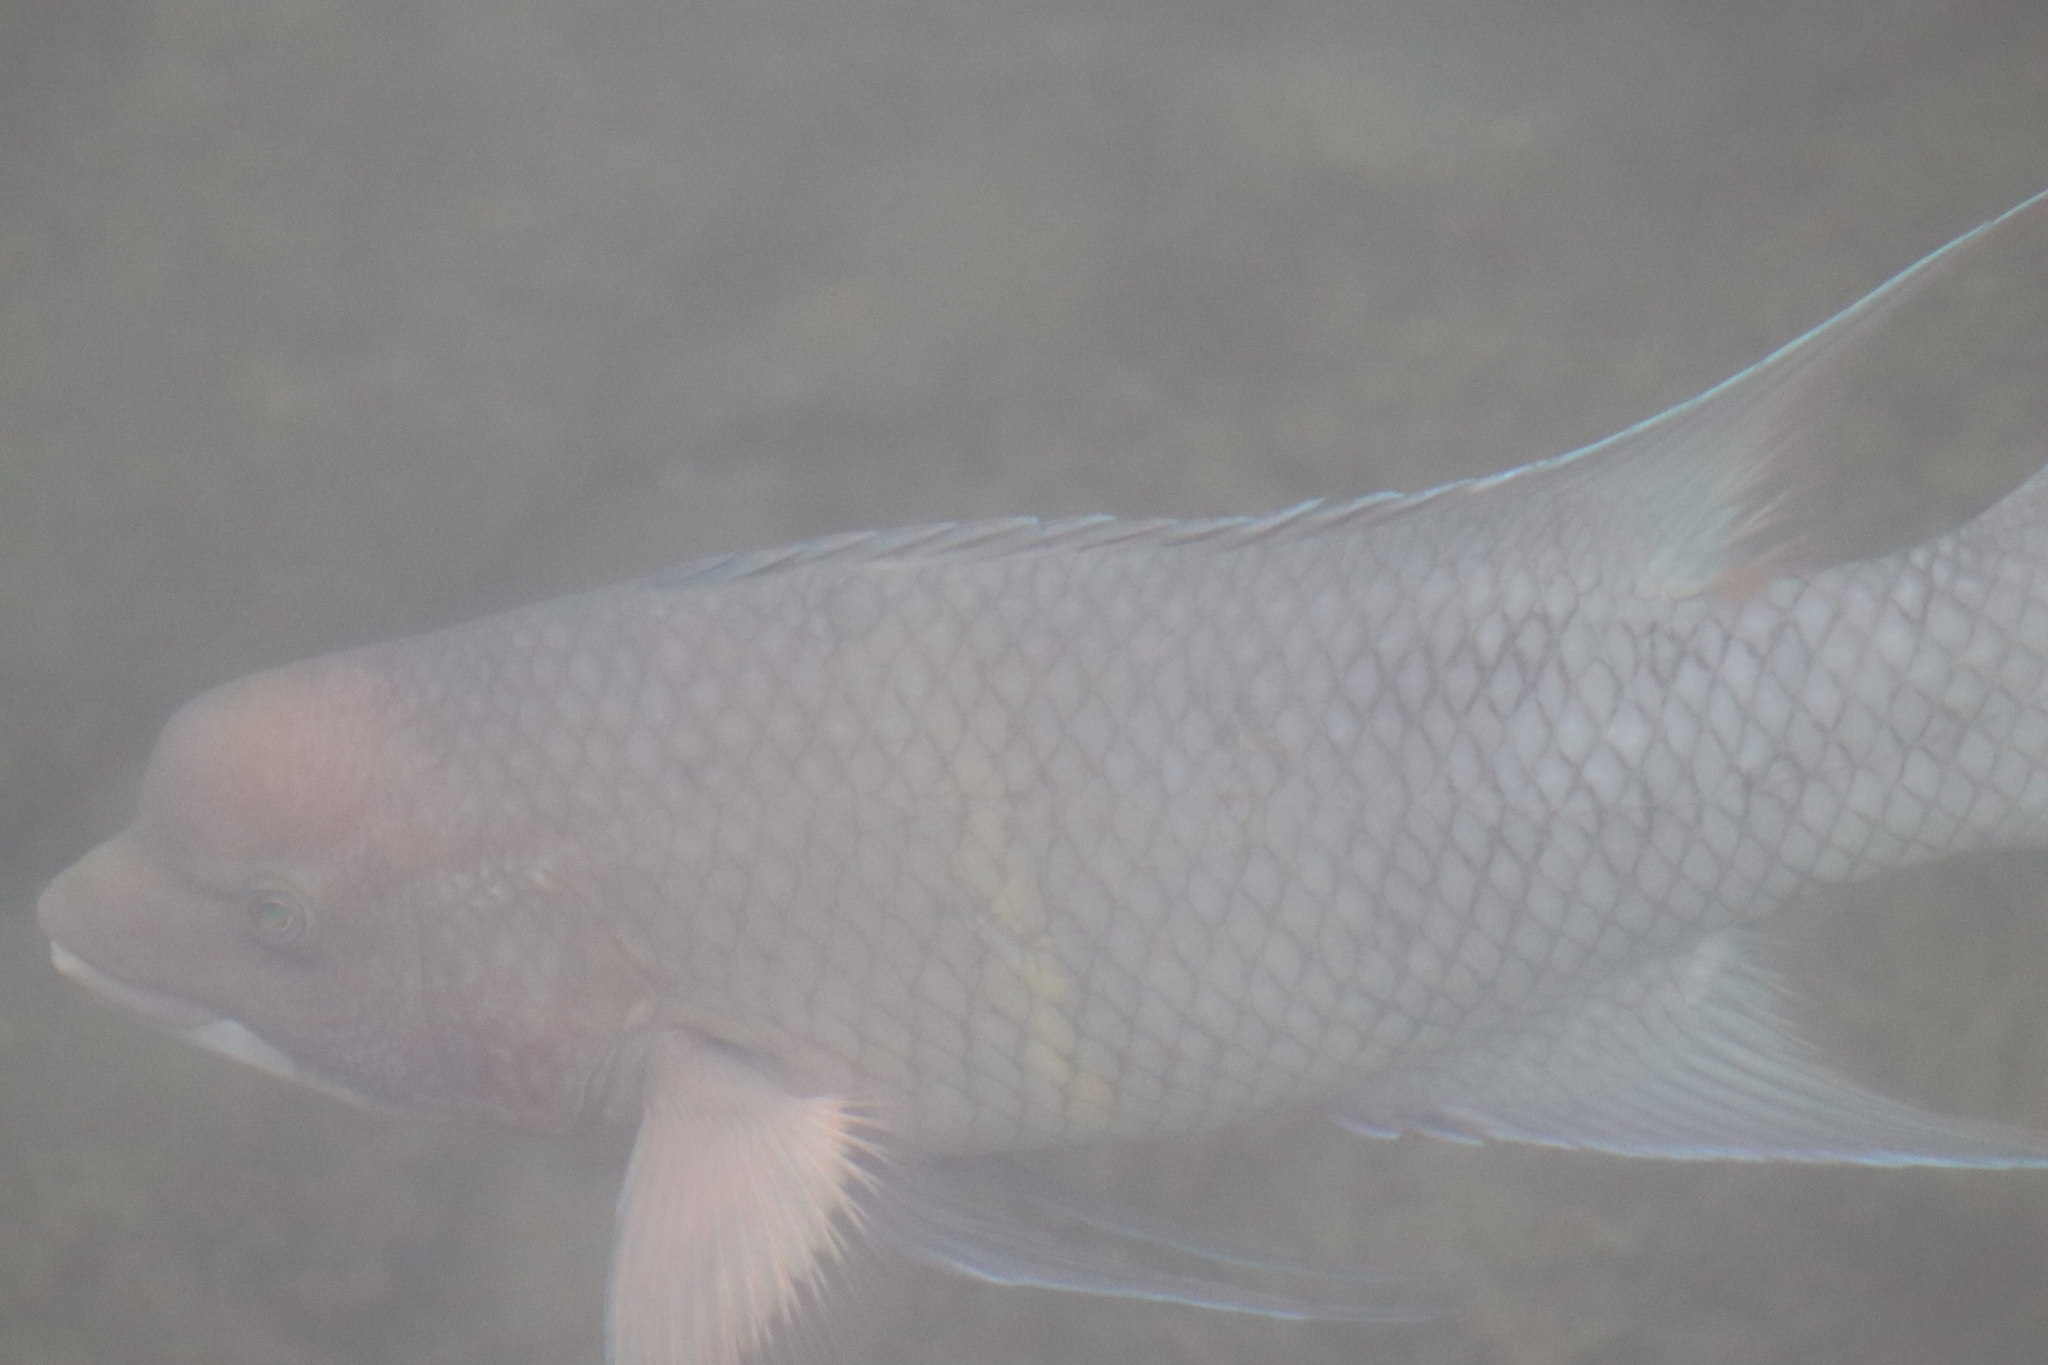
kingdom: Animalia
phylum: Chordata
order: Perciformes
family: Labridae
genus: Bodianus
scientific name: Bodianus diplotaenia
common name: Mexican hogfish
